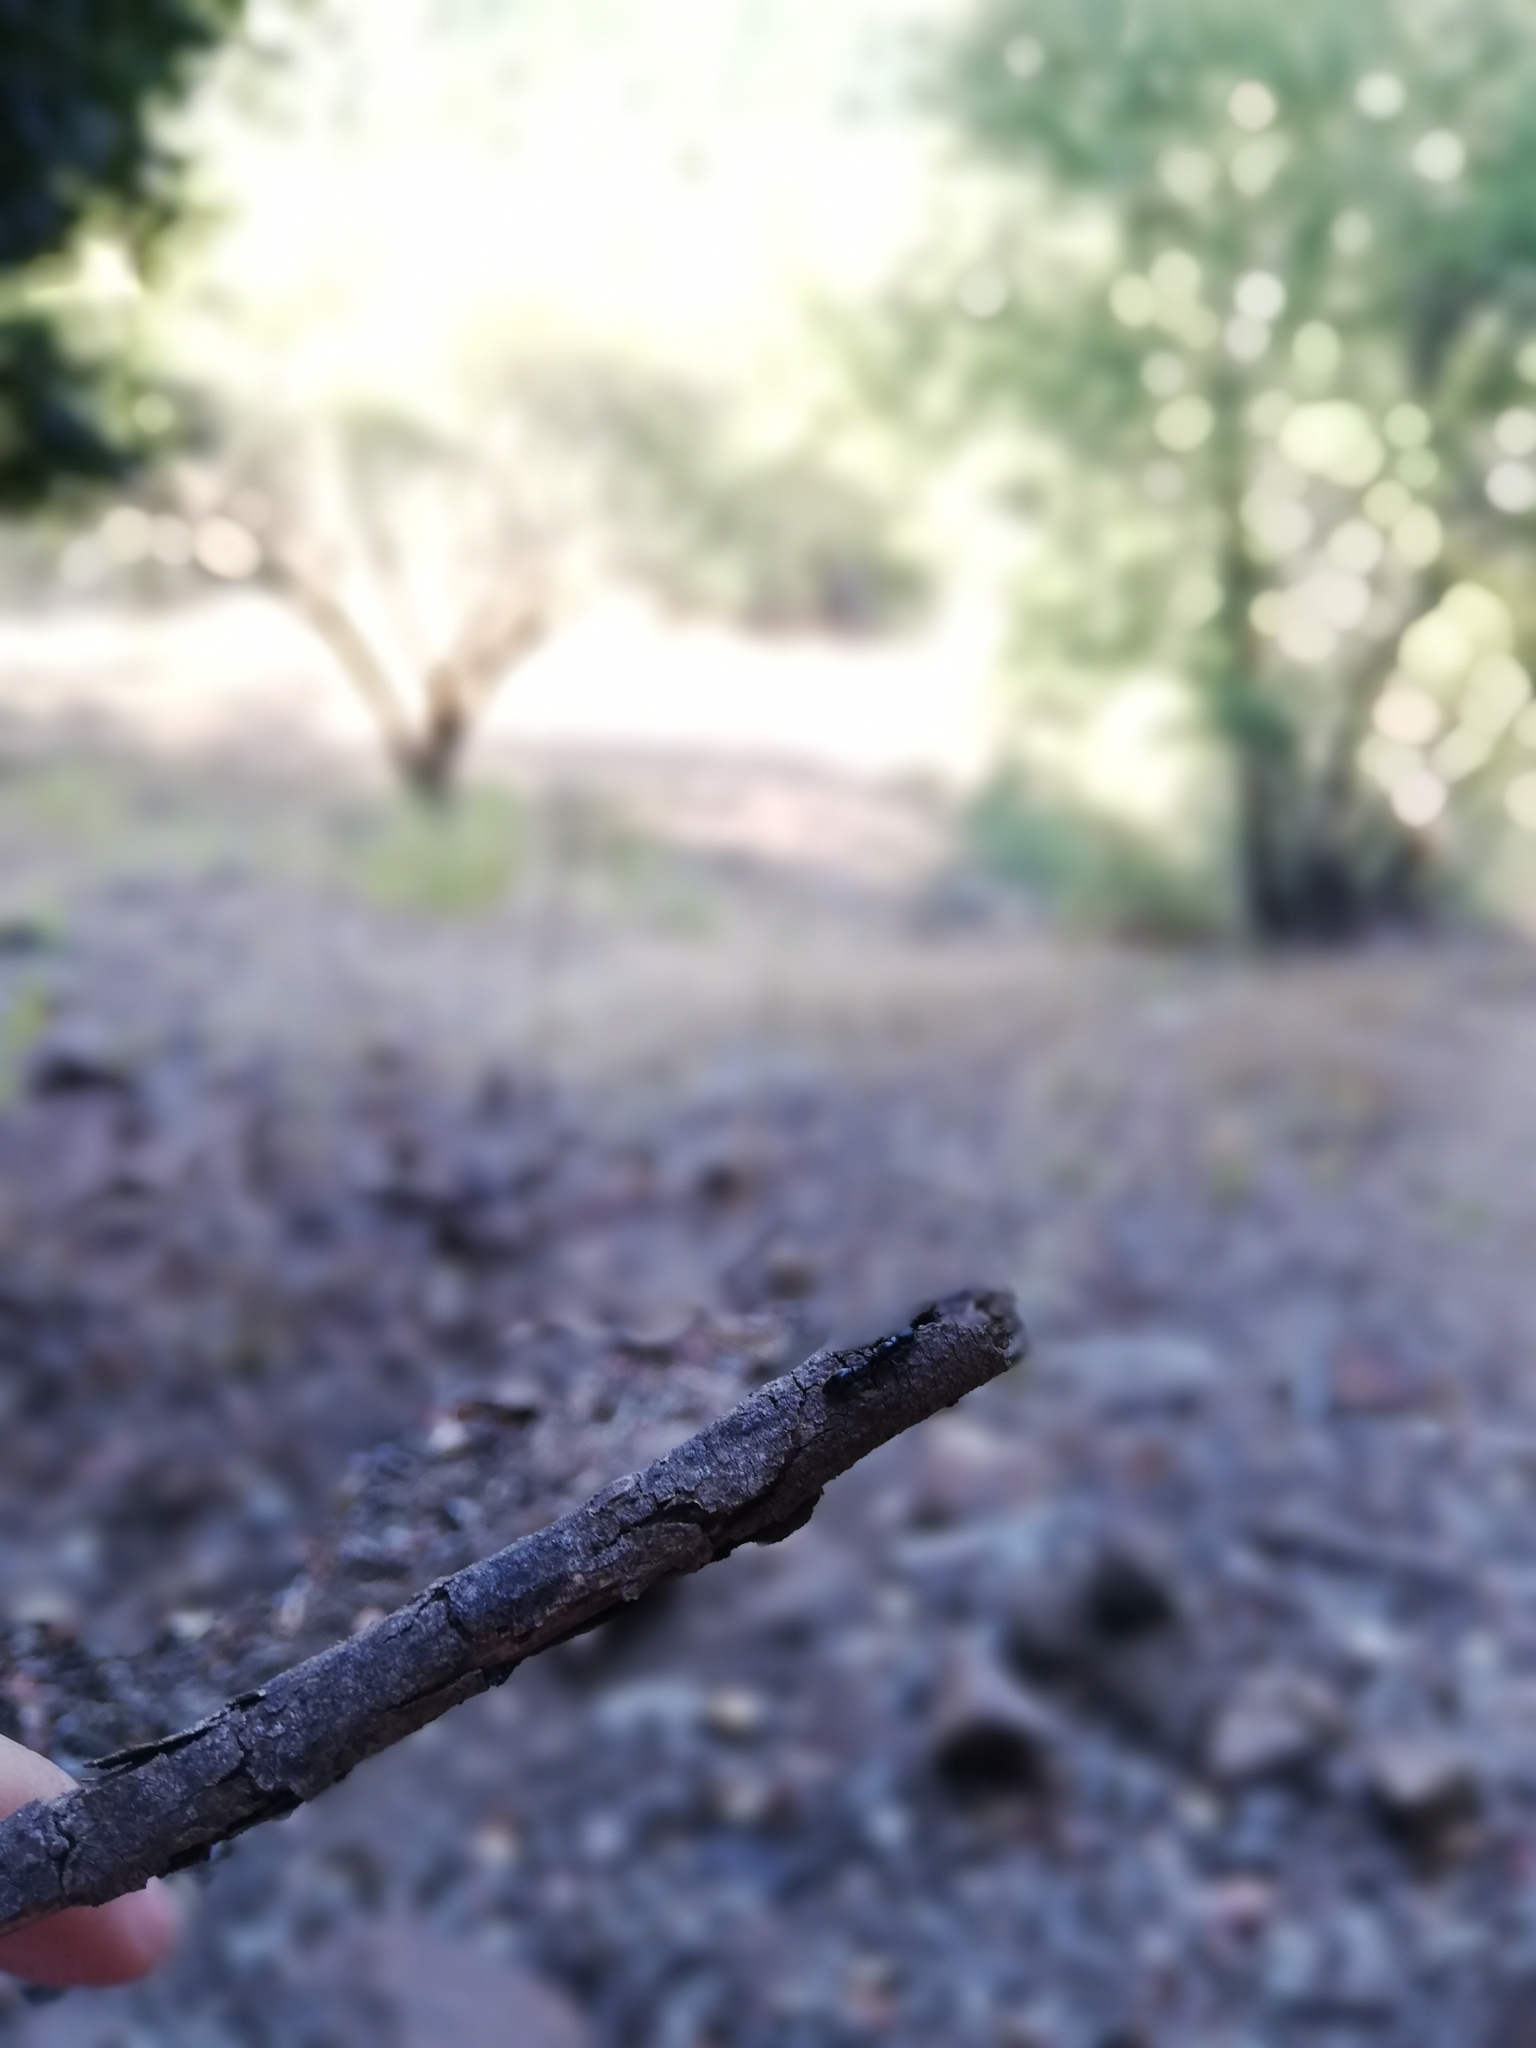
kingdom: Animalia
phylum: Arthropoda
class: Insecta
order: Hymenoptera
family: Formicidae
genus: Pseudomyrmex
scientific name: Pseudomyrmex lynceus
